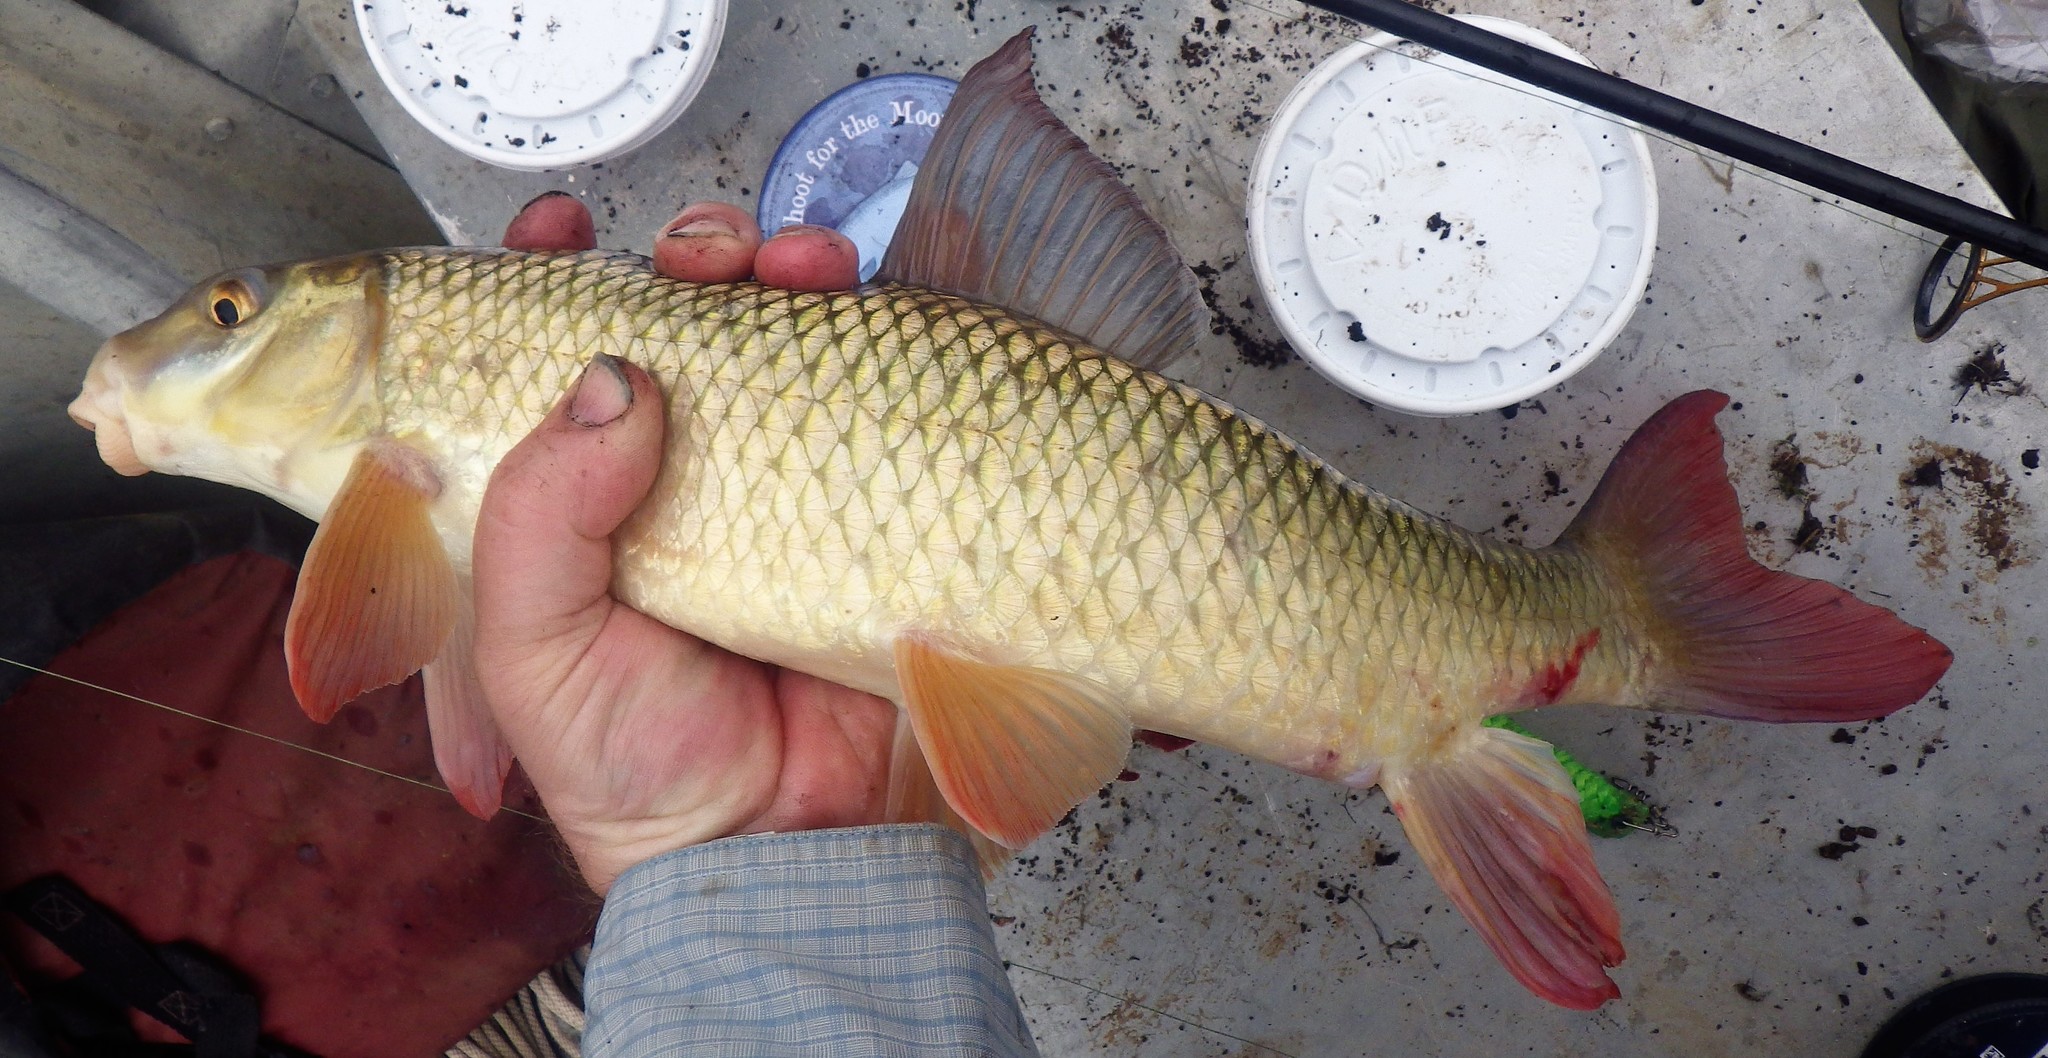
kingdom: Animalia
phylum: Chordata
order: Cypriniformes
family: Catostomidae
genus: Moxostoma
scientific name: Moxostoma macrolepidotum
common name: Shorthead redhorse
